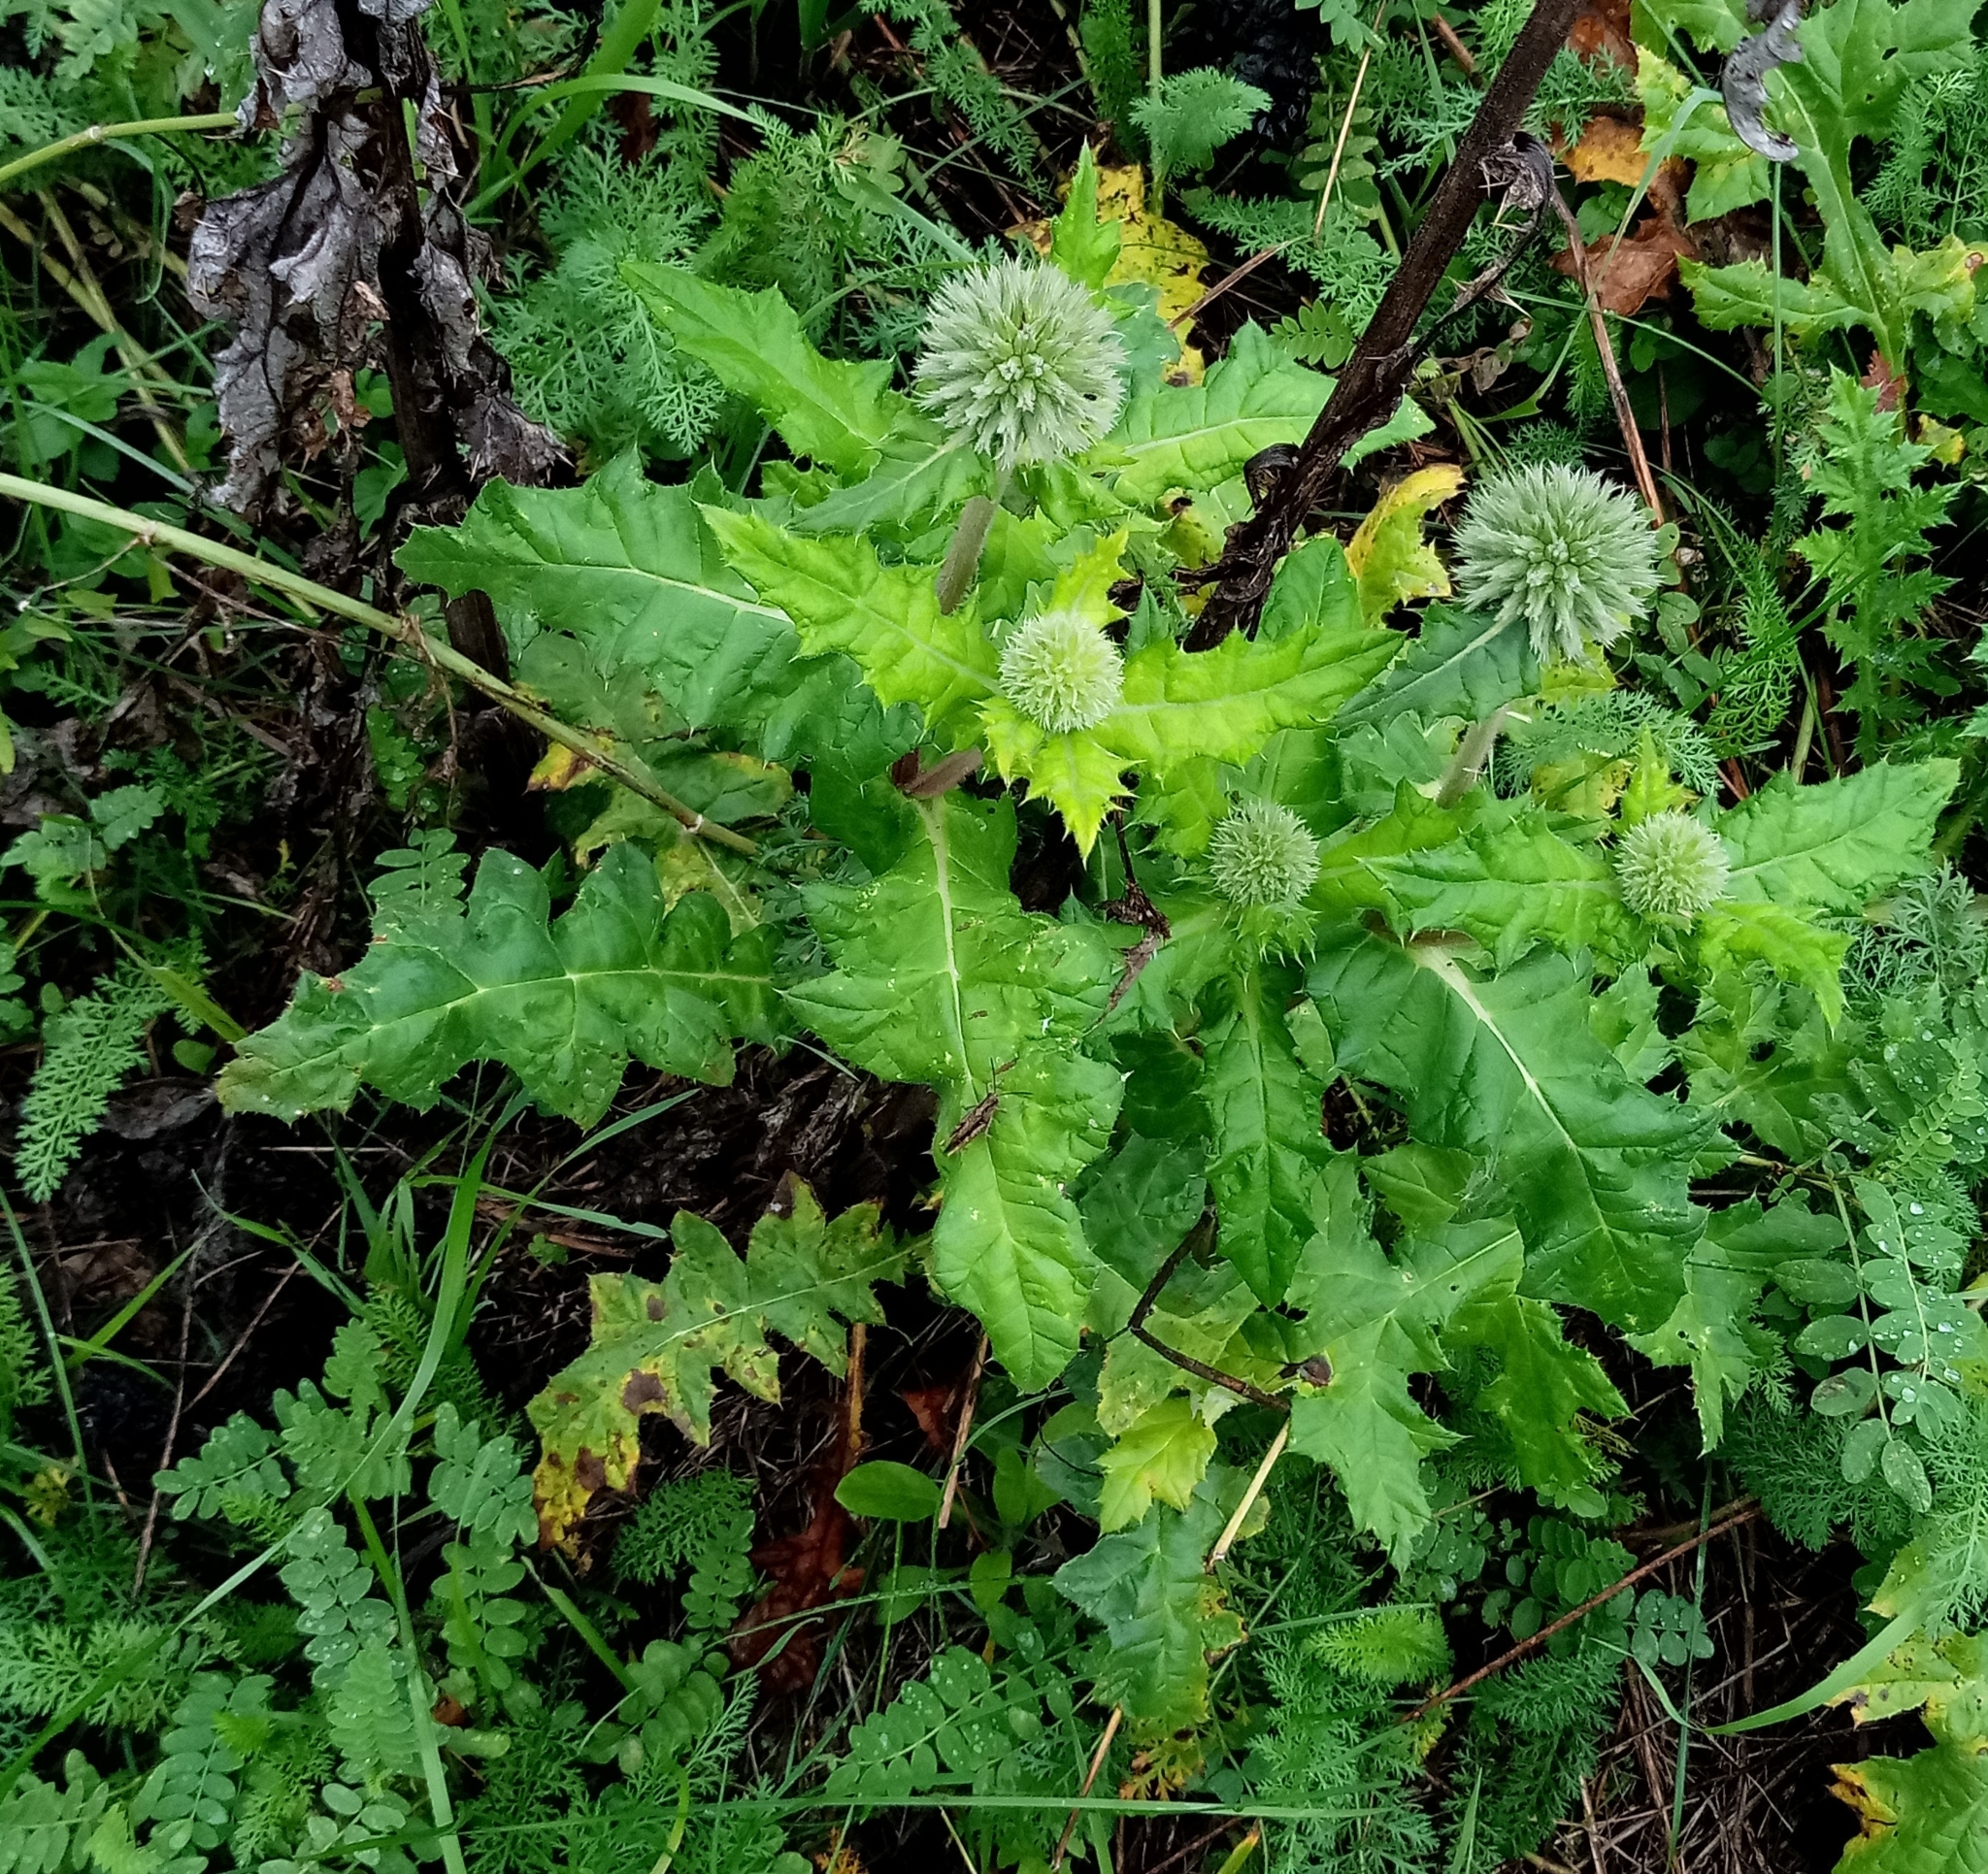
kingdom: Plantae
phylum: Tracheophyta
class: Magnoliopsida
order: Asterales
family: Asteraceae
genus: Echinops
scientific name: Echinops sphaerocephalus
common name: Glandular globe-thistle
